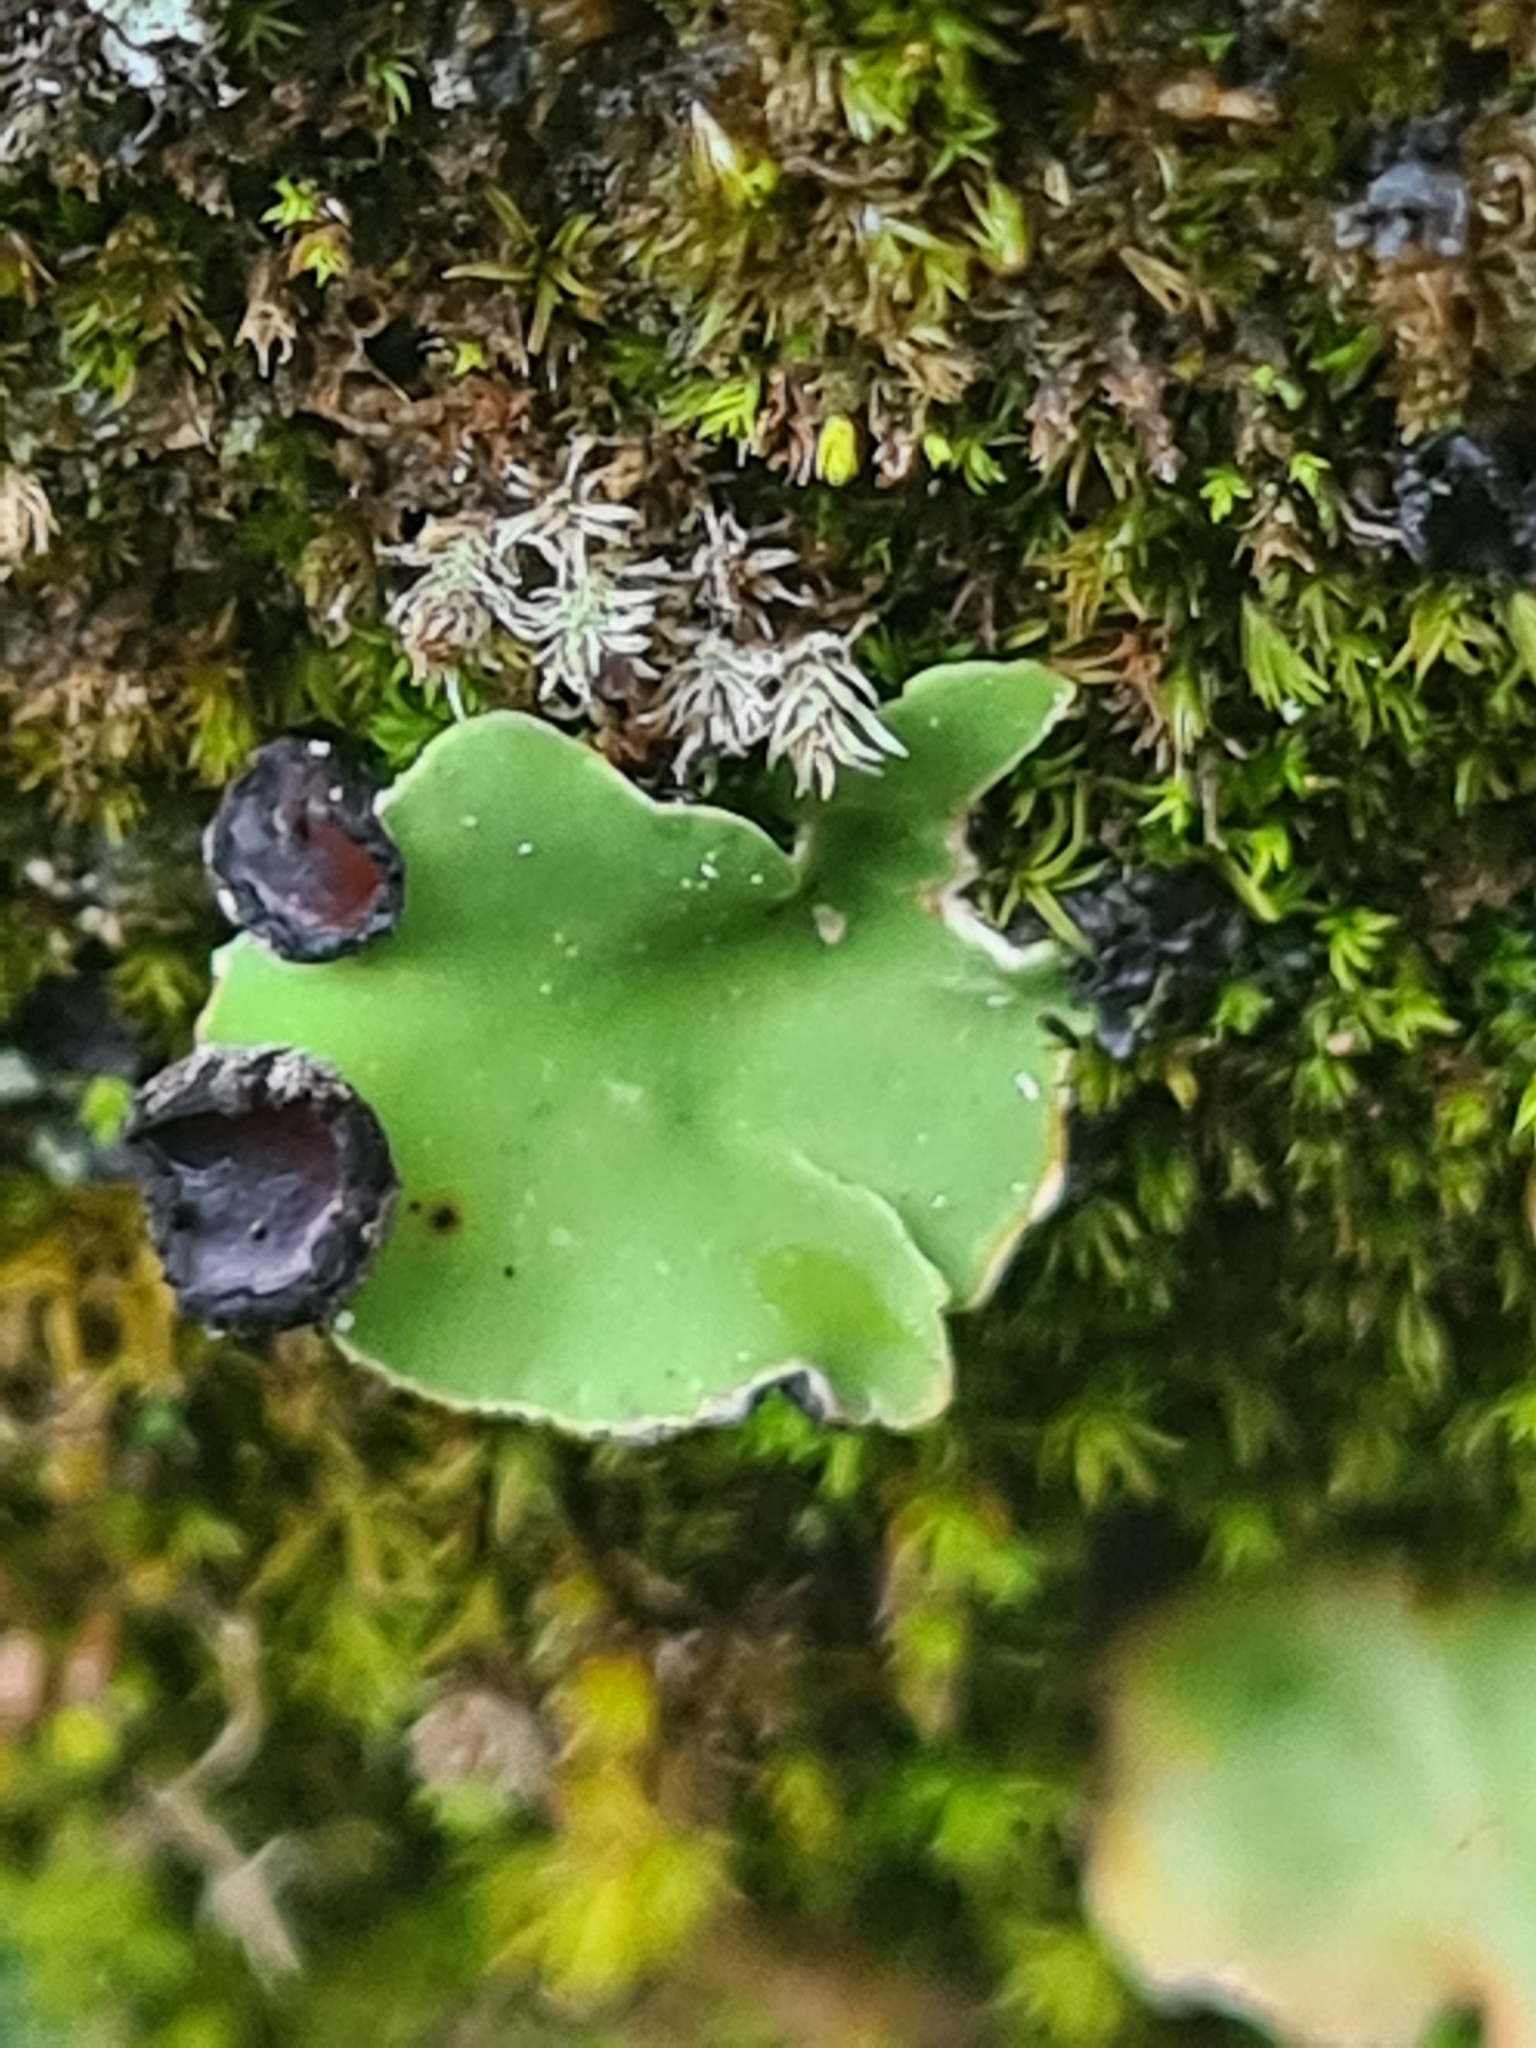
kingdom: Fungi
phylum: Ascomycota
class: Lecanoromycetes
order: Peltigerales
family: Peltigeraceae
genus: Peltigera
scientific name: Peltigera venosa
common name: Pixie gowns lichen
